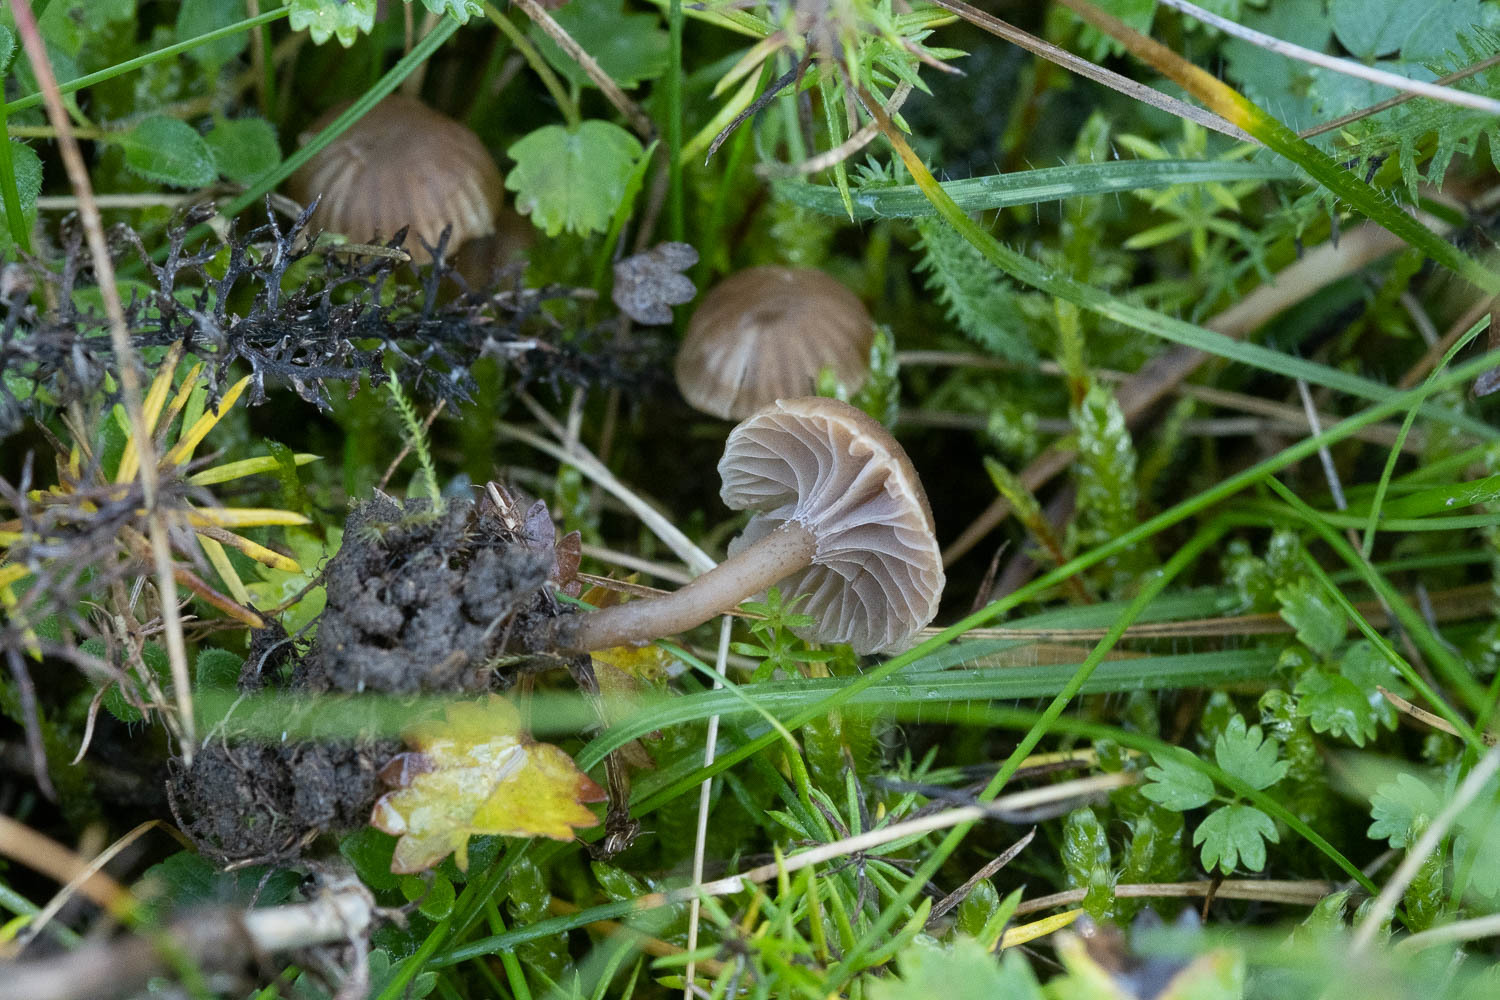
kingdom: Fungi
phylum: Basidiomycota
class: Agaricomycetes
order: Agaricales
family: Clavariaceae
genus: Hodophilus
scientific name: Hodophilus foetens
